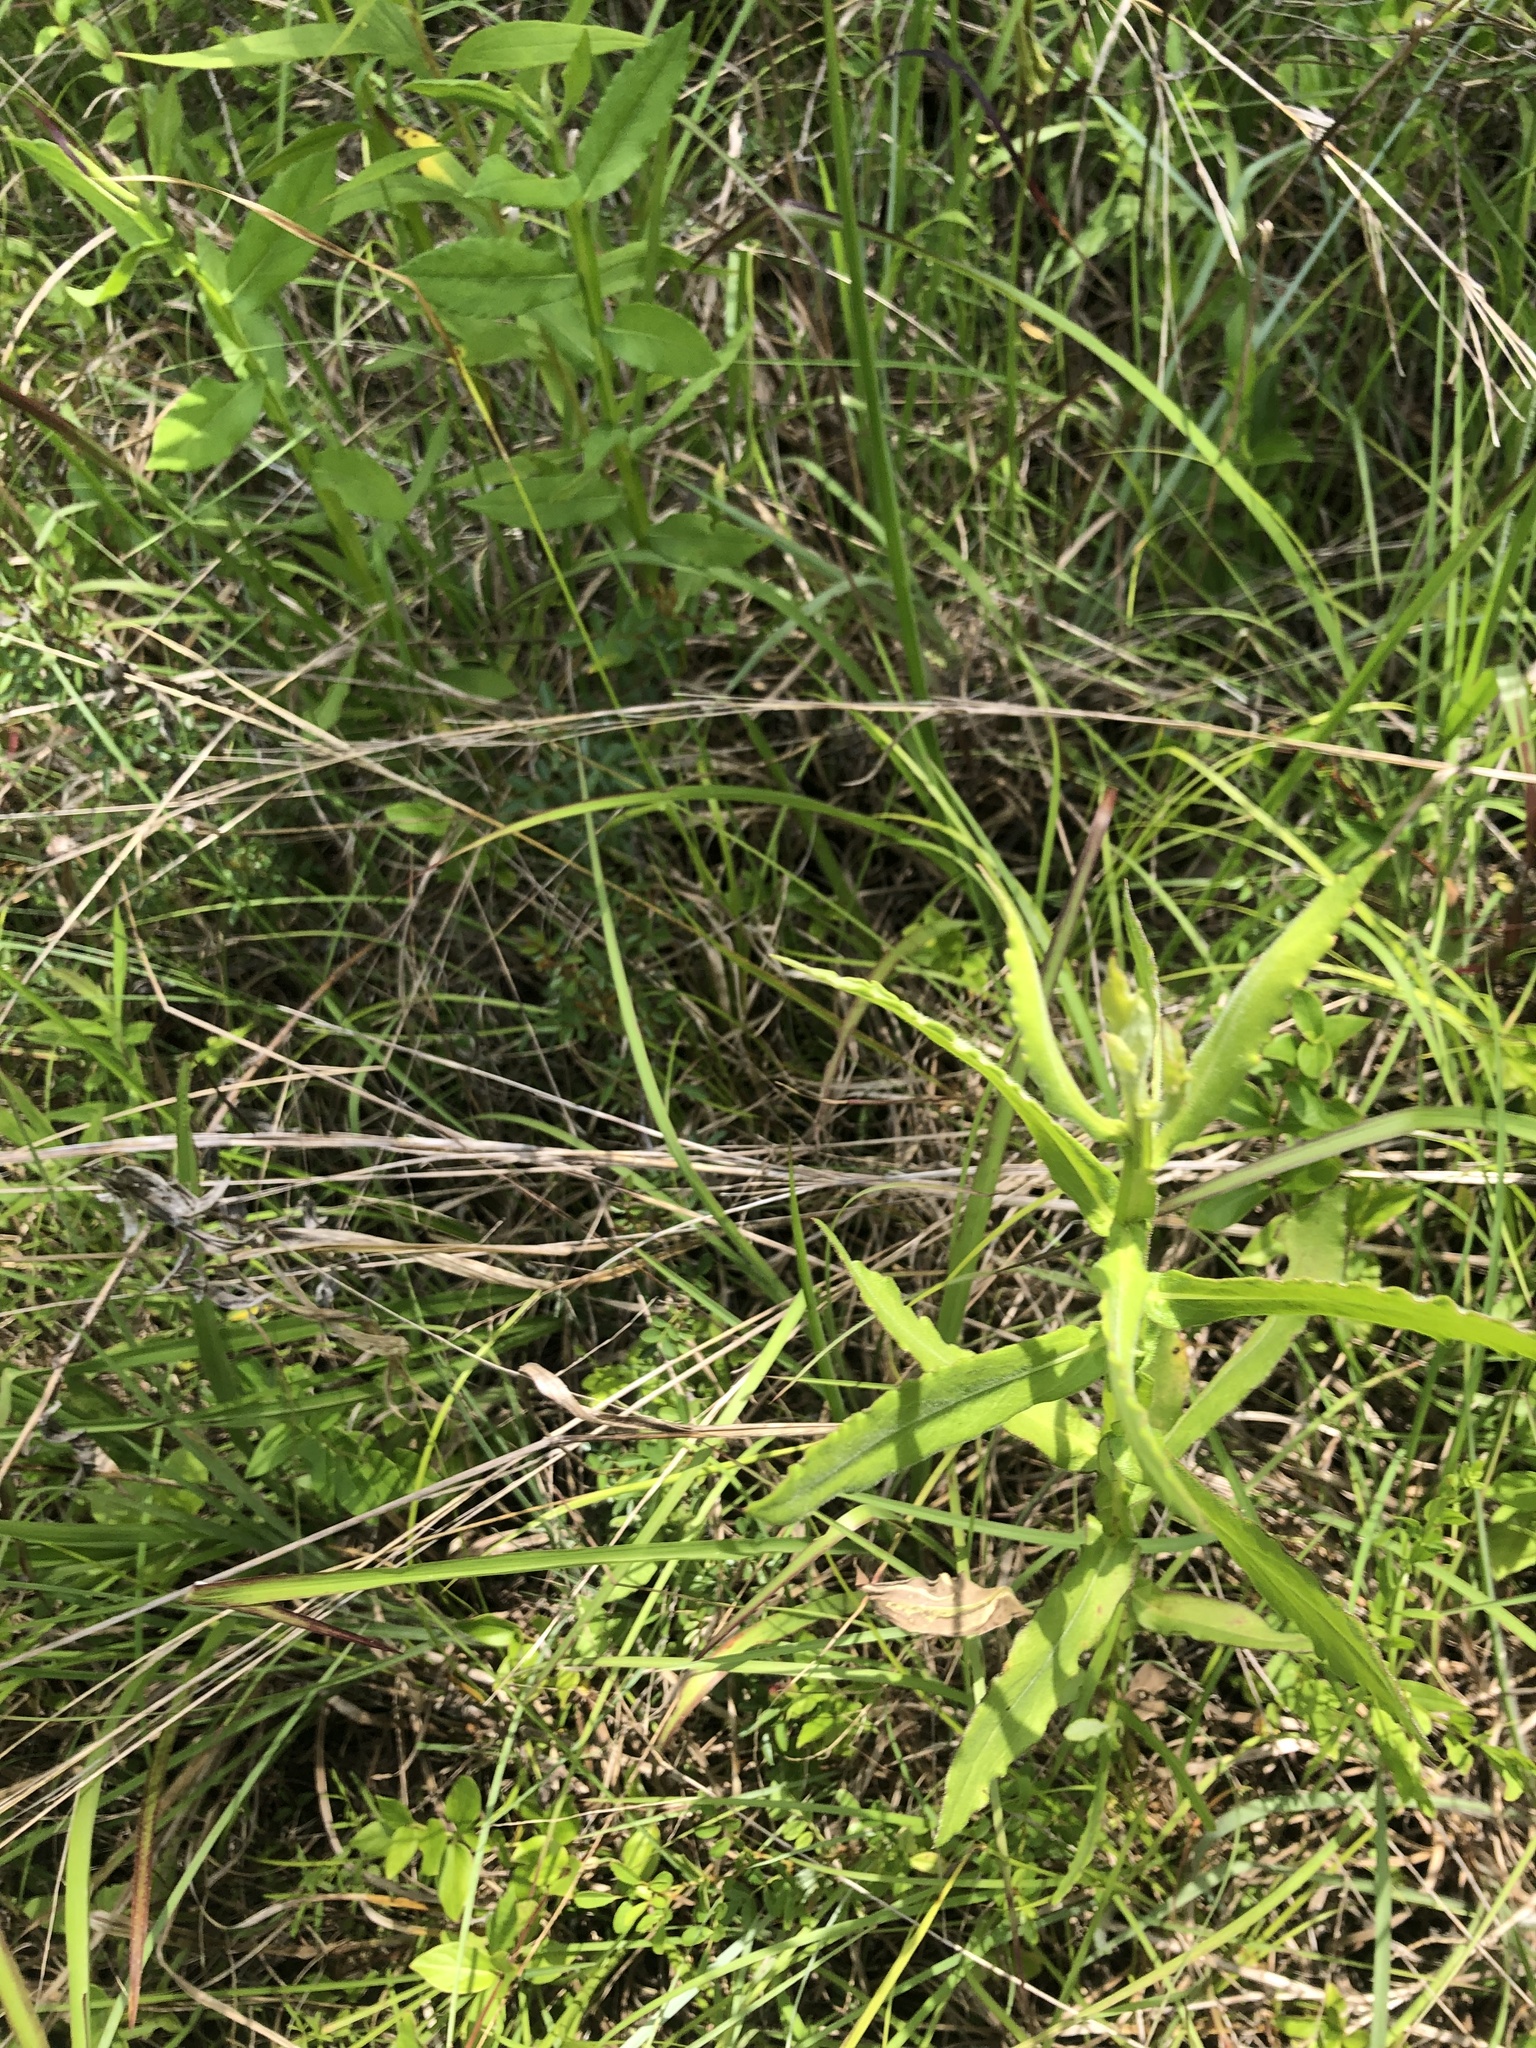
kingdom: Plantae
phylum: Tracheophyta
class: Magnoliopsida
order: Asterales
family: Asteraceae
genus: Helenium
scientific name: Helenium autumnale
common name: Sneezeweed
